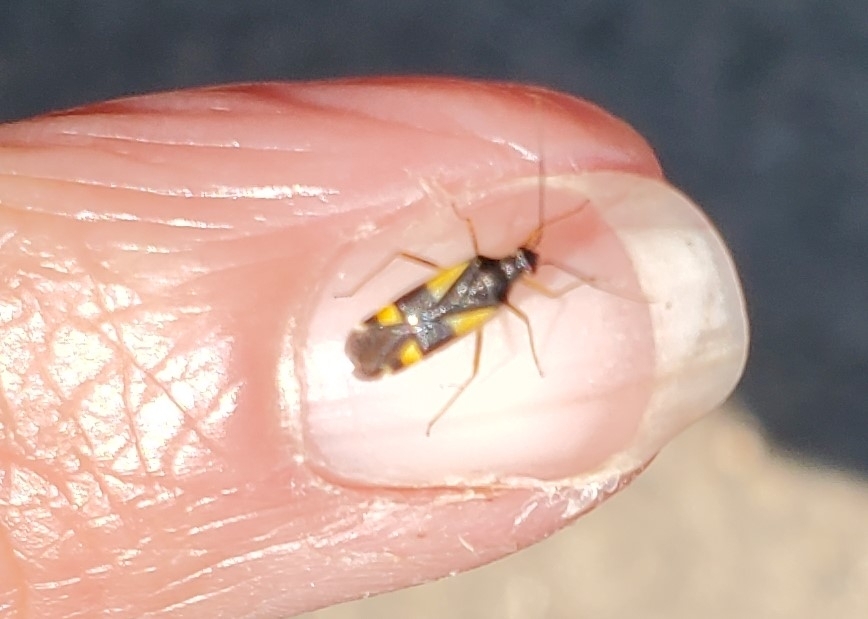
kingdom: Animalia
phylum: Arthropoda
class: Insecta
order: Hemiptera
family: Miridae
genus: Dryophilocoris
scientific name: Dryophilocoris flavoquadrimaculatus
